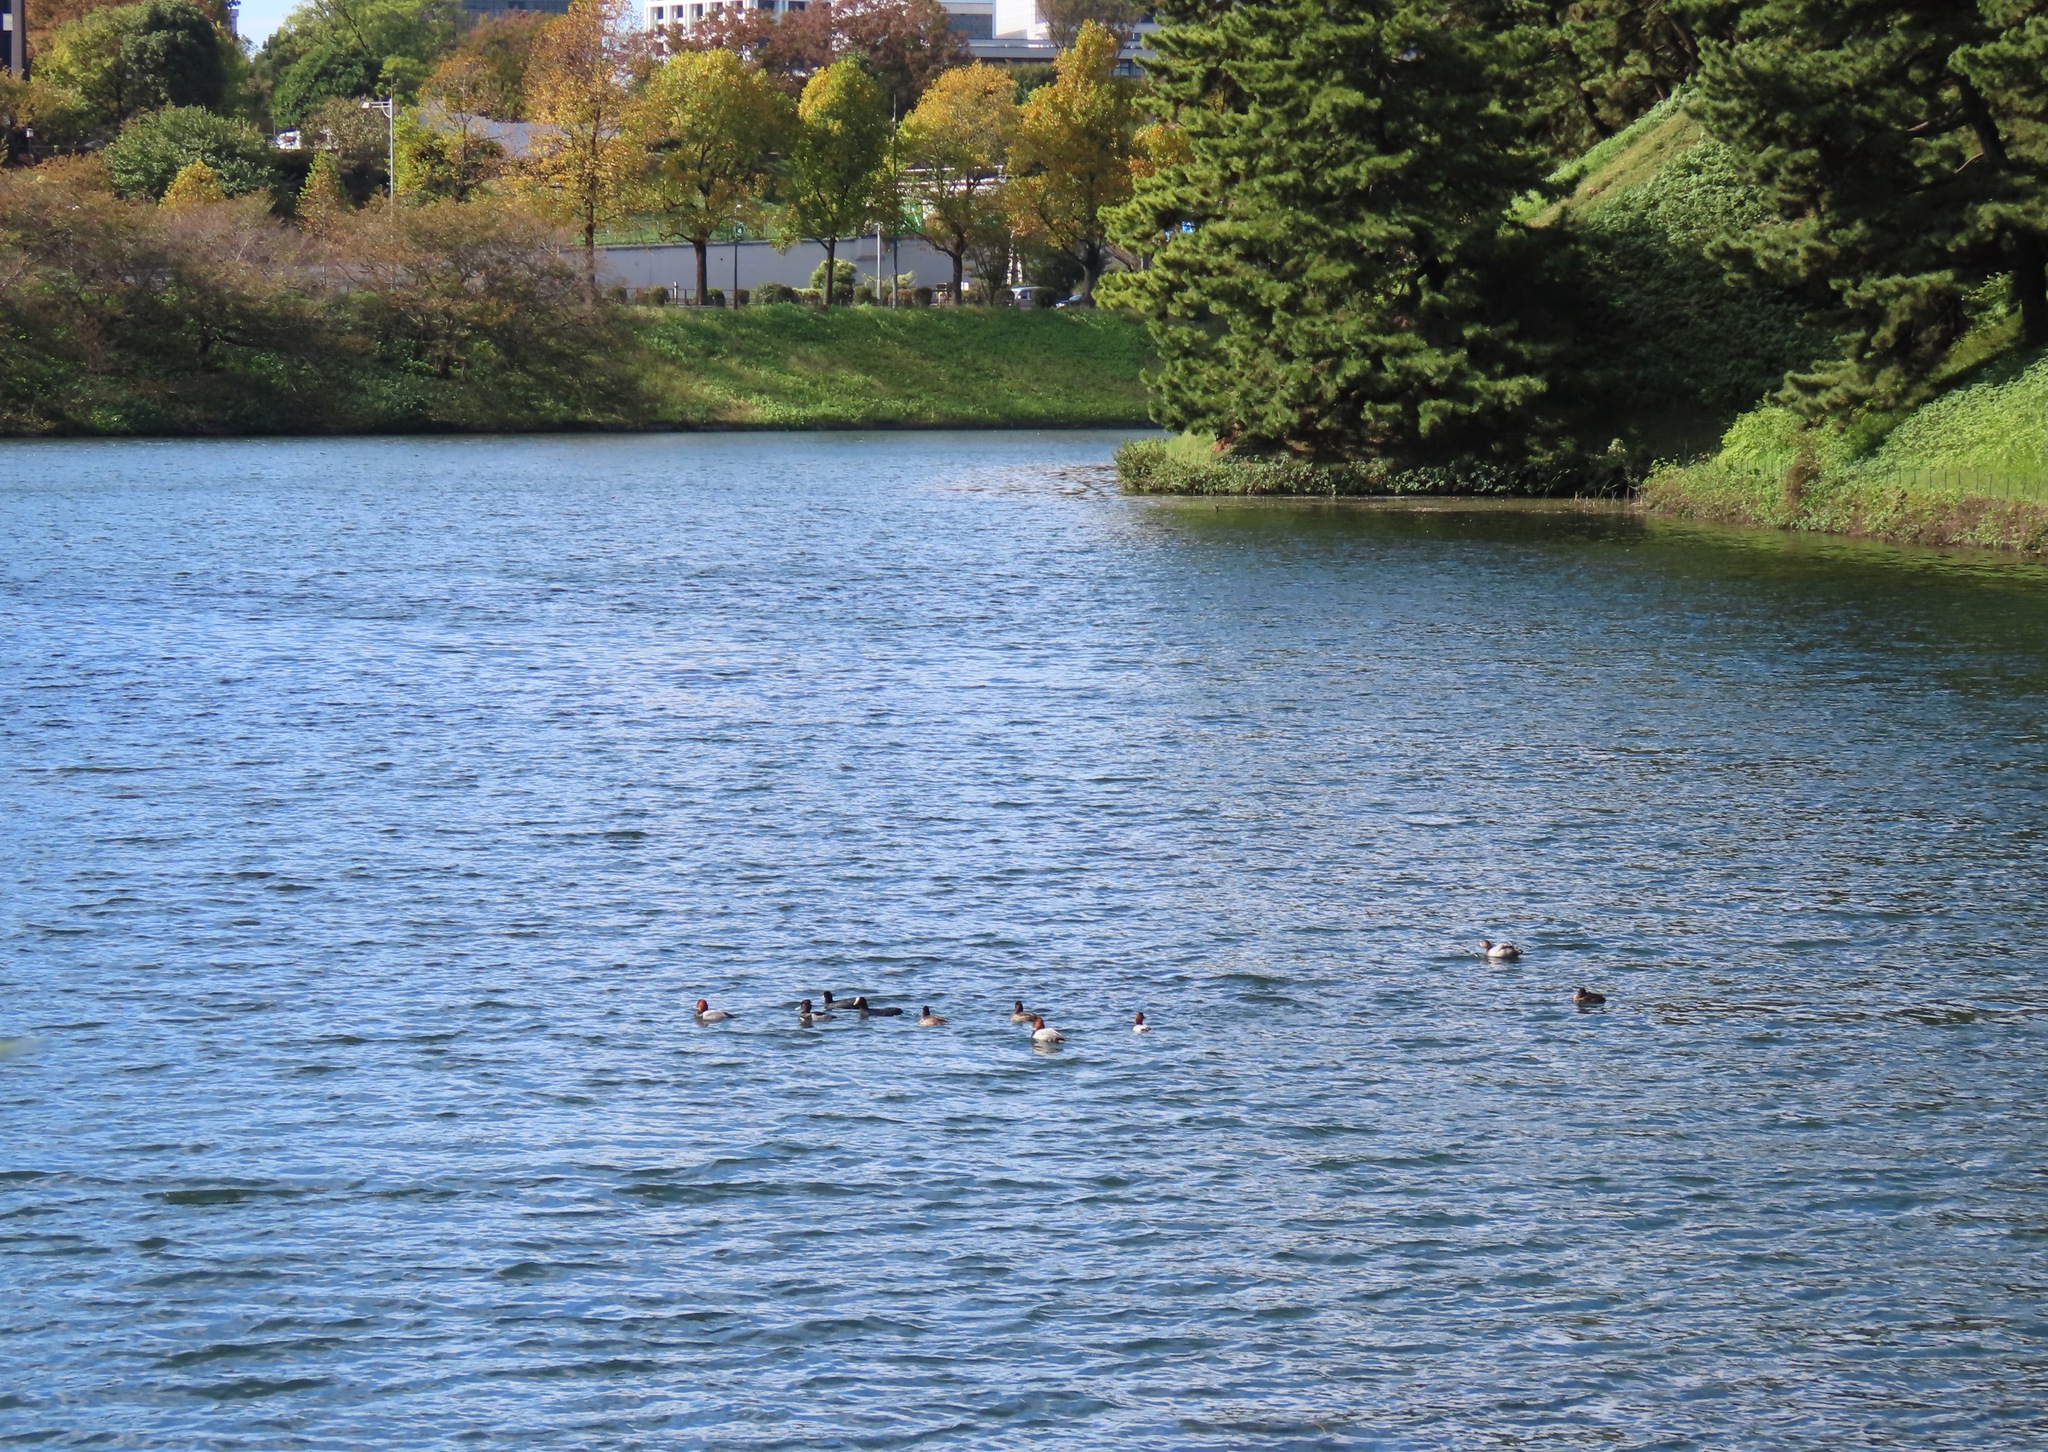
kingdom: Animalia
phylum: Chordata
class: Aves
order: Anseriformes
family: Anatidae
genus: Aythya
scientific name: Aythya ferina
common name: Common pochard
